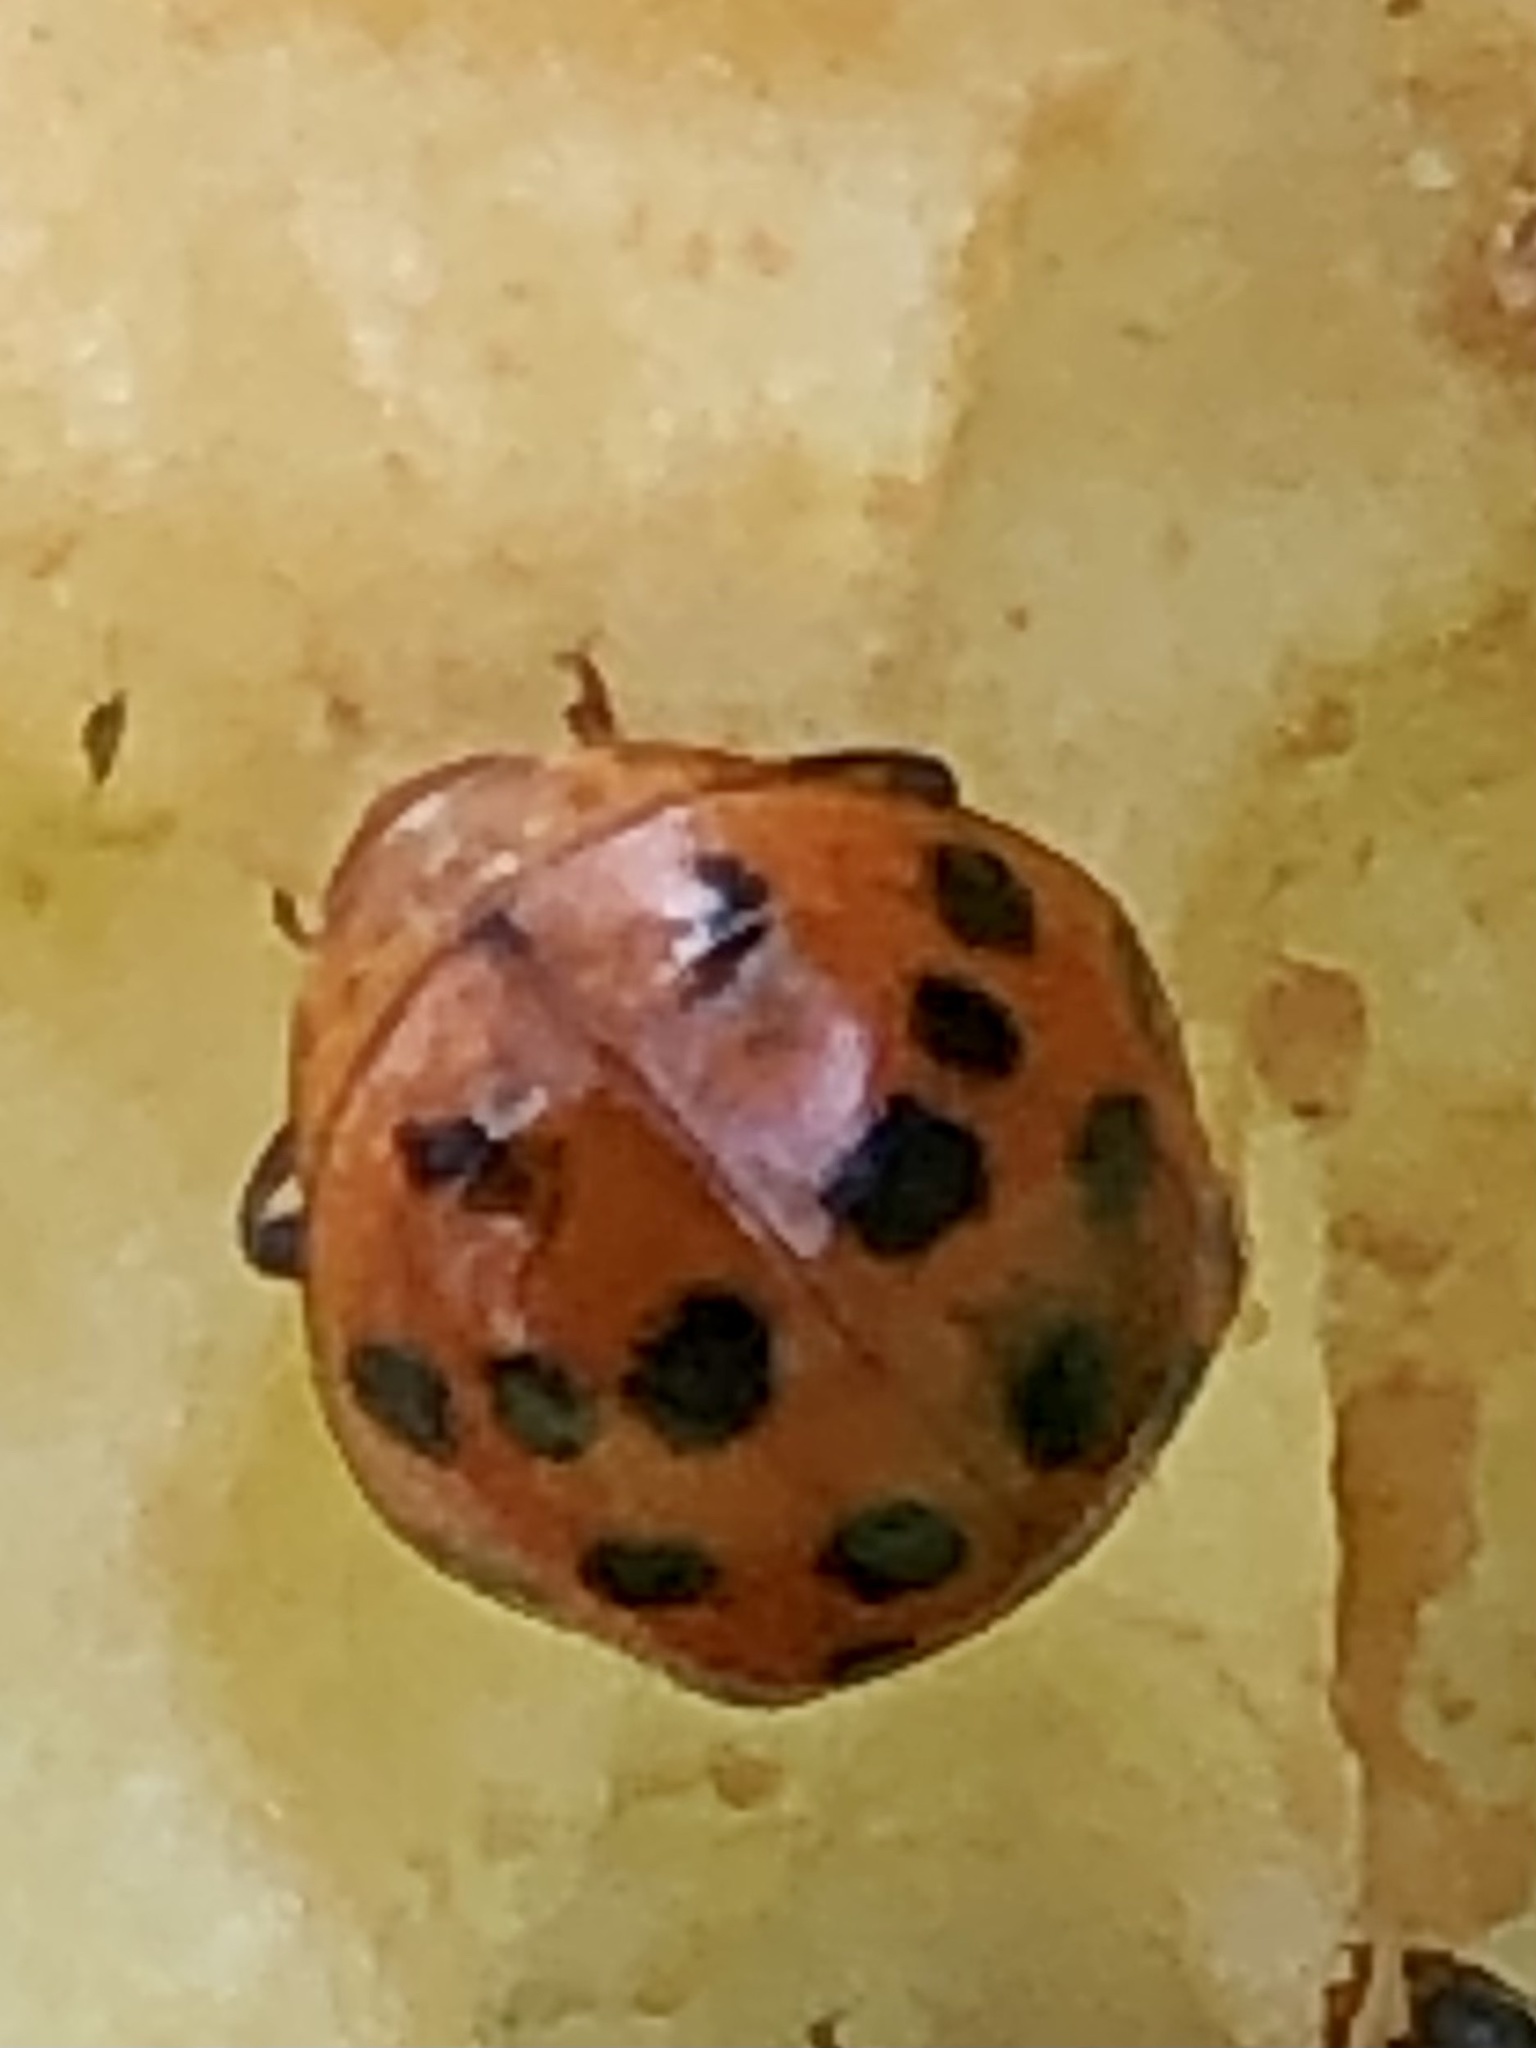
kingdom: Animalia
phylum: Arthropoda
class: Insecta
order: Coleoptera
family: Coccinellidae
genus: Harmonia
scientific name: Harmonia axyridis
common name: Harlequin ladybird
